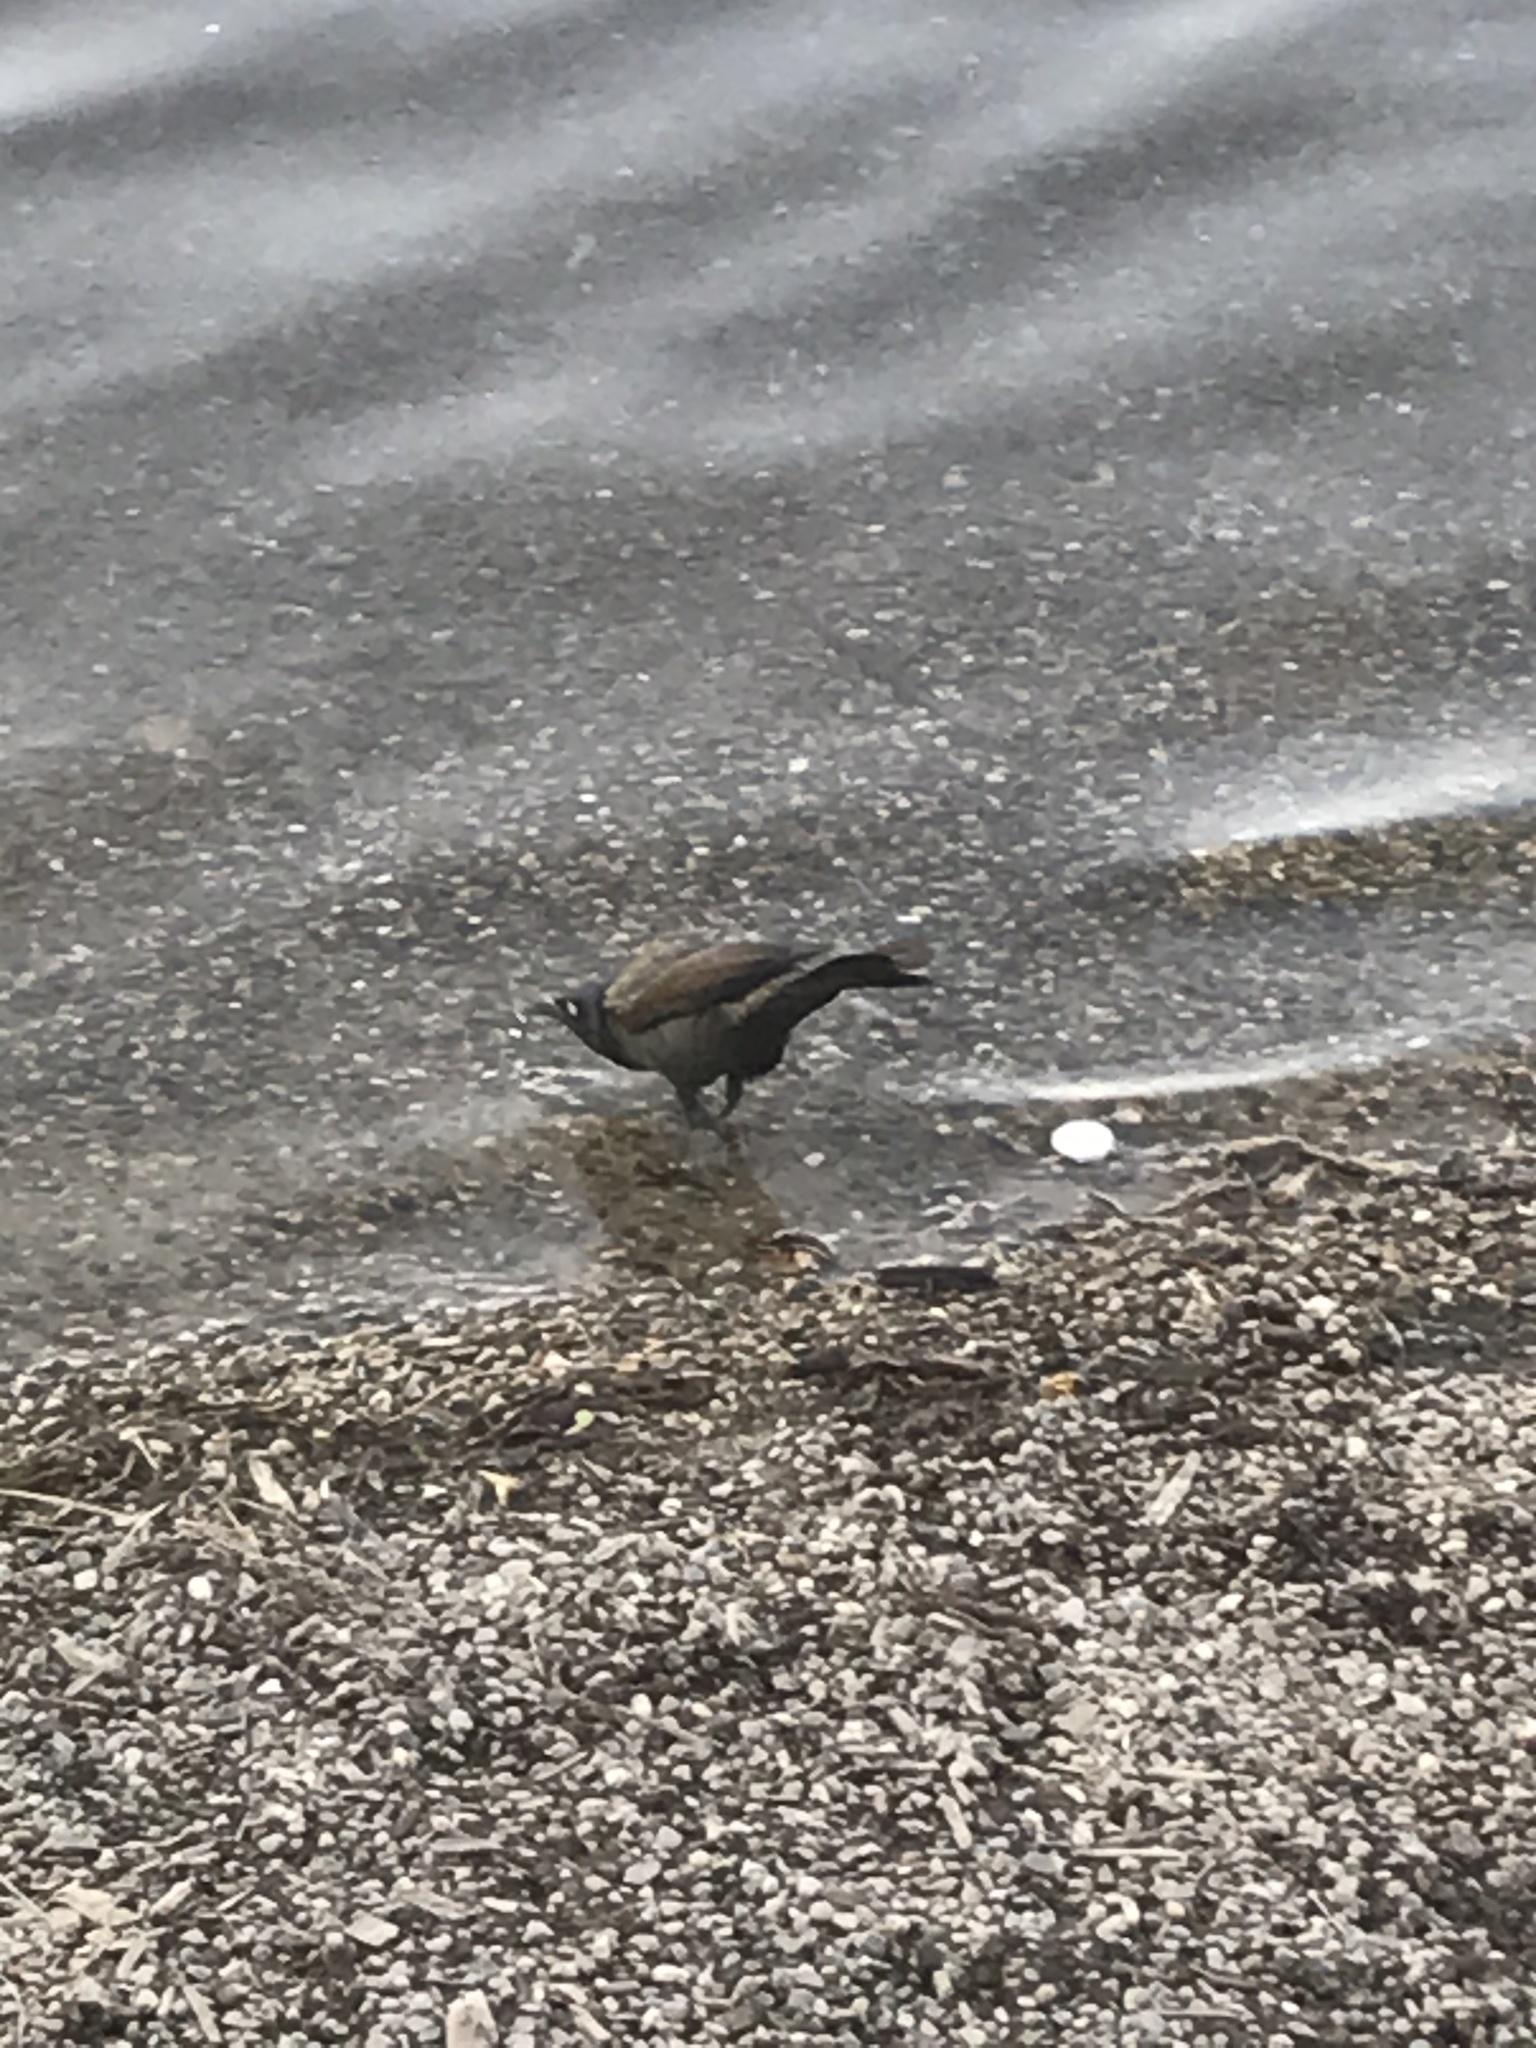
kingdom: Animalia
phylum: Chordata
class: Aves
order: Passeriformes
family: Icteridae
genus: Quiscalus
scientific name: Quiscalus quiscula
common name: Common grackle
